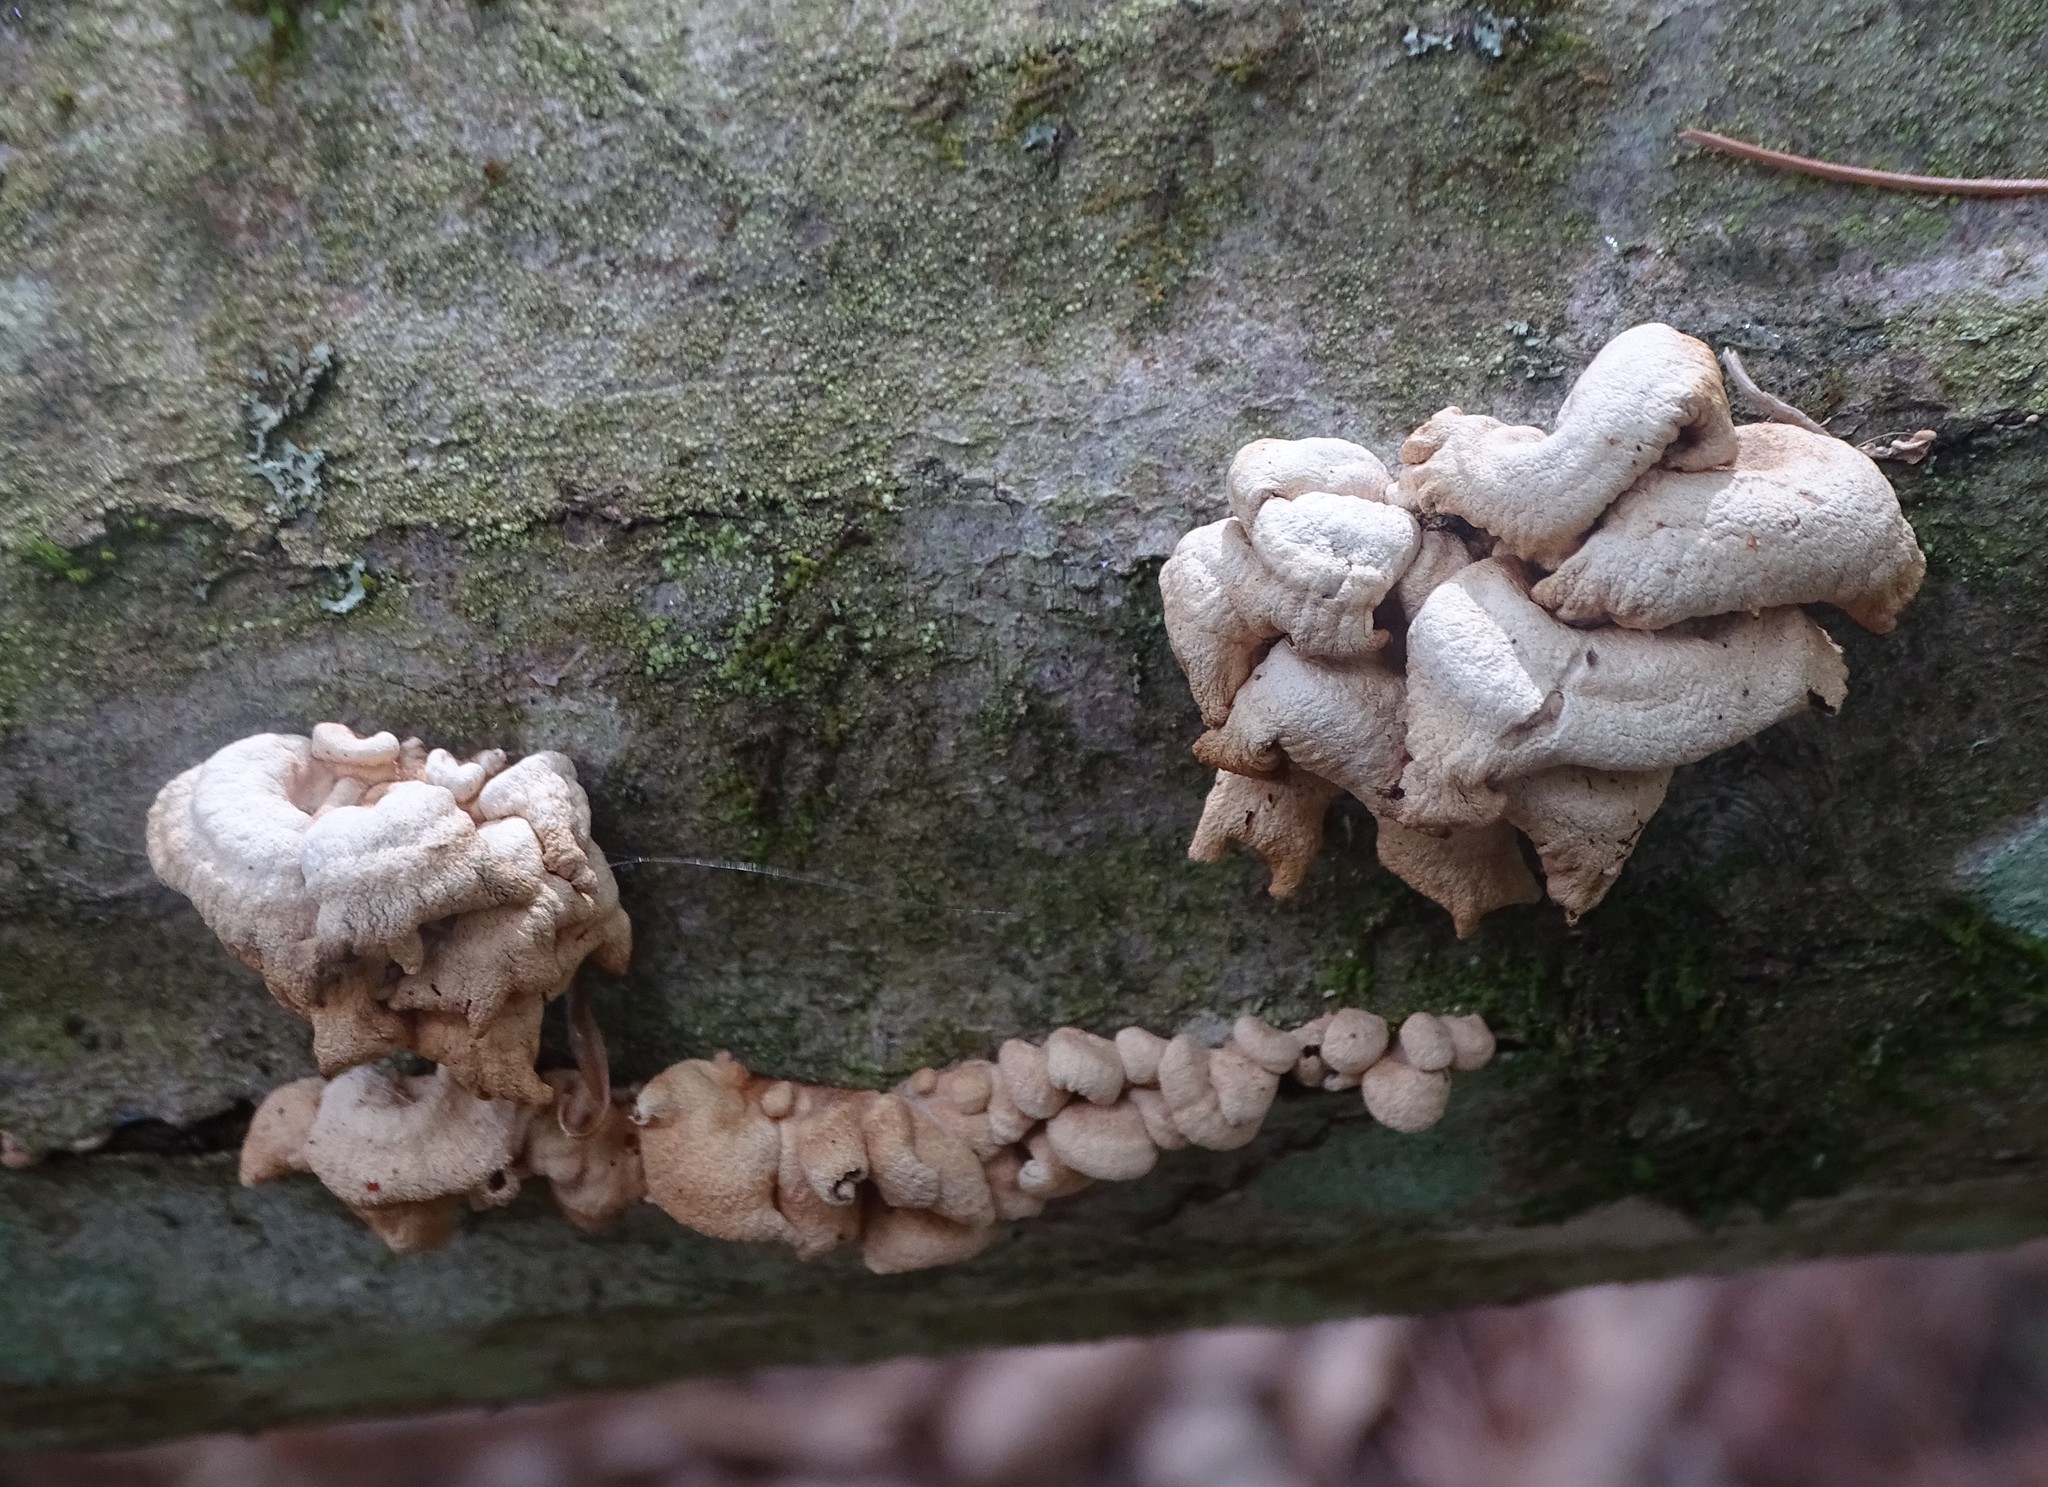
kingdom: Fungi
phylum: Basidiomycota
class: Agaricomycetes
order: Agaricales
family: Mycenaceae
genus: Panellus
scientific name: Panellus stipticus
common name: Bitter oysterling
